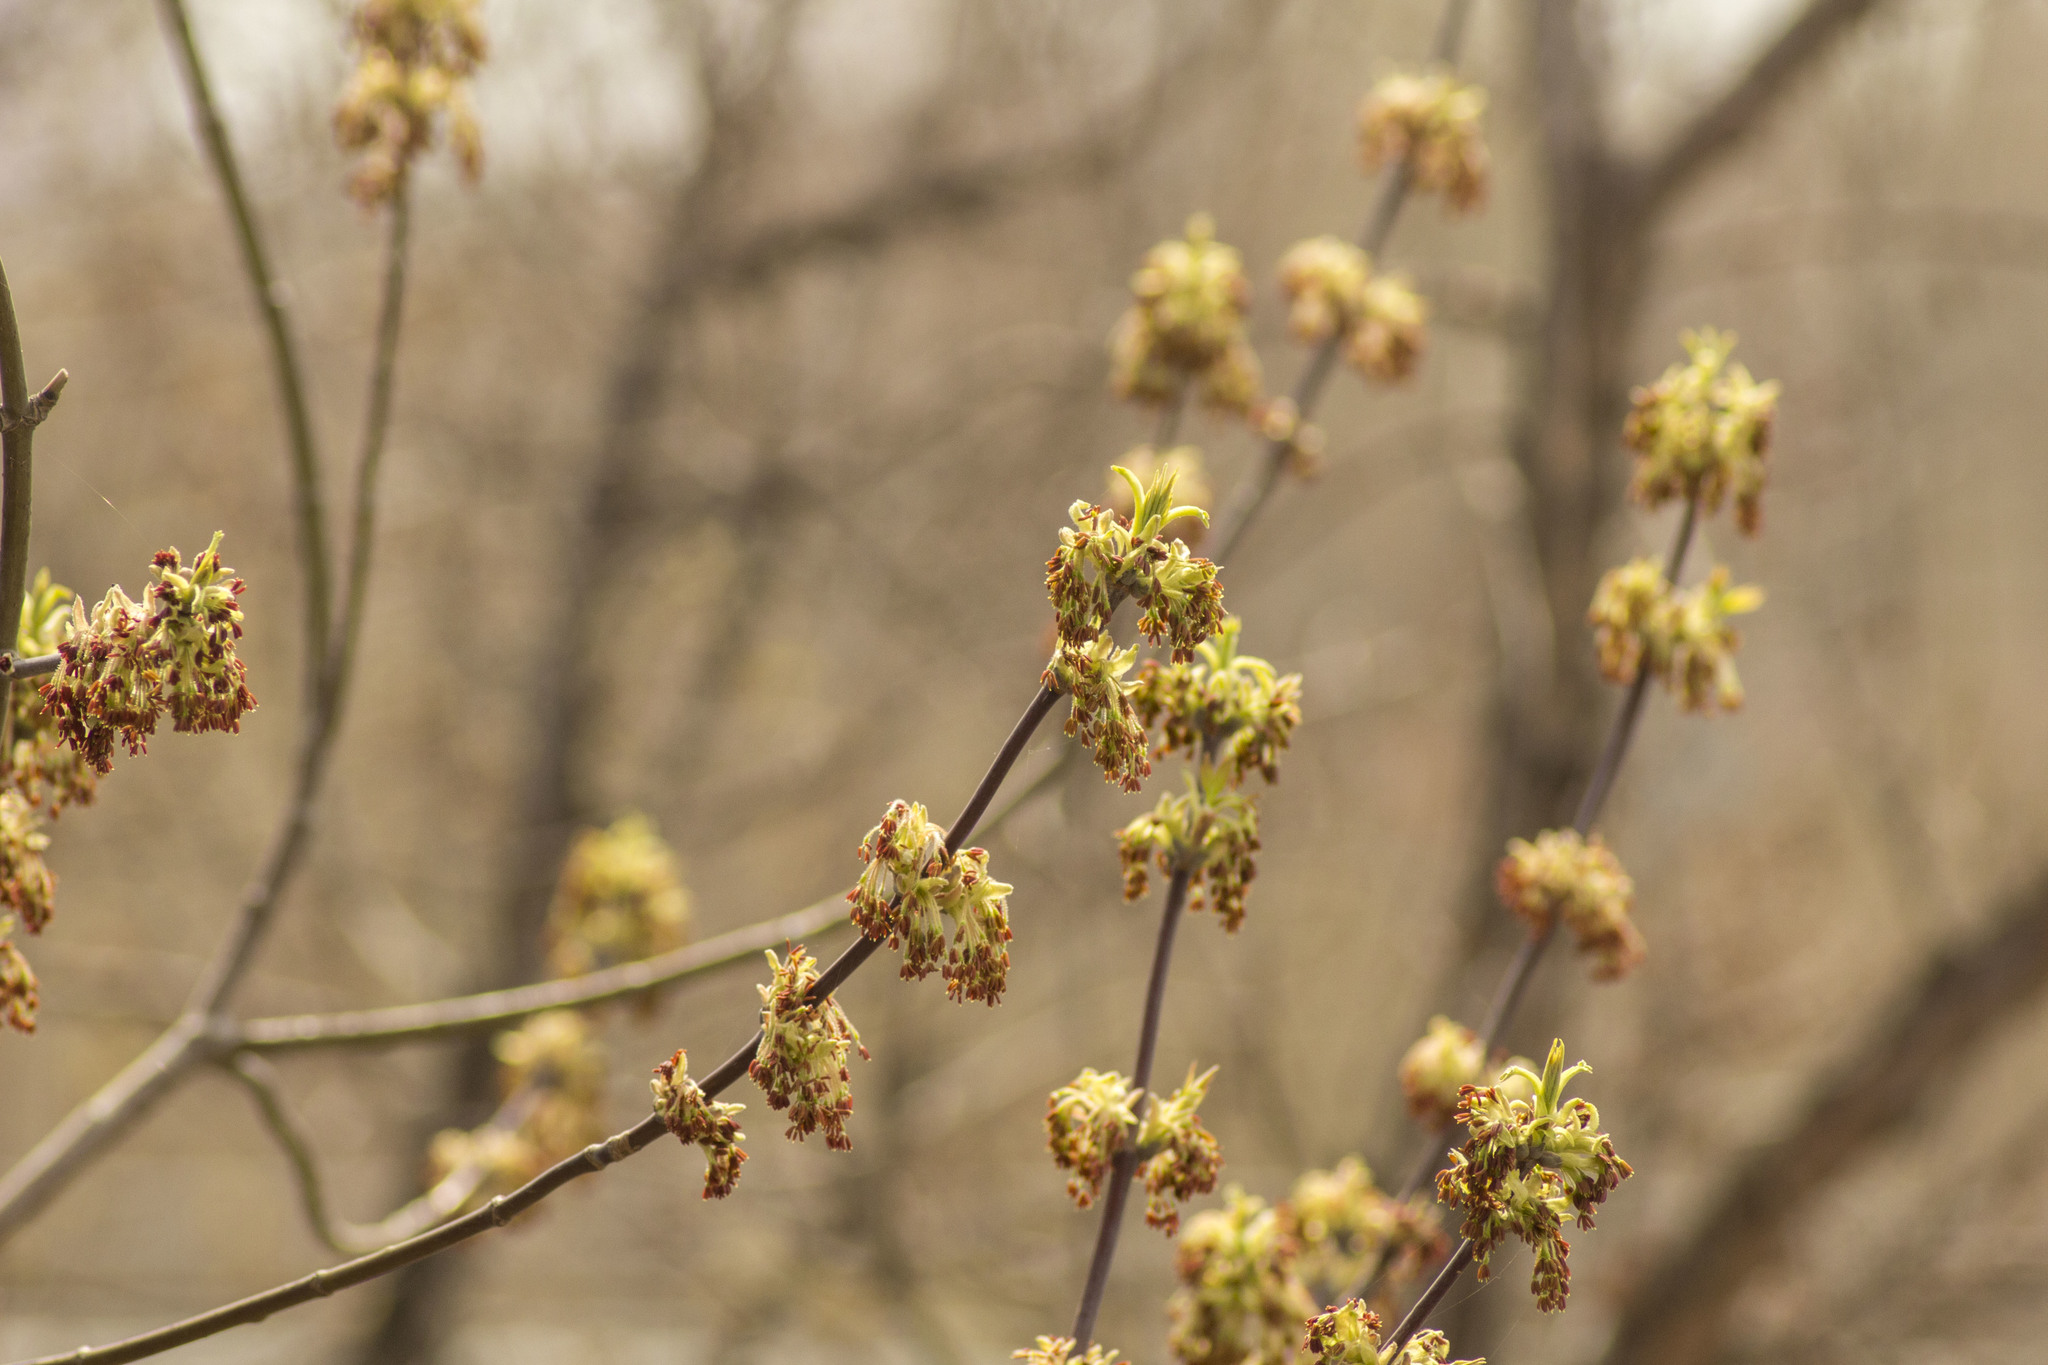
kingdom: Plantae
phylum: Tracheophyta
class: Magnoliopsida
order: Sapindales
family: Sapindaceae
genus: Acer
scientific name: Acer negundo
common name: Ashleaf maple
